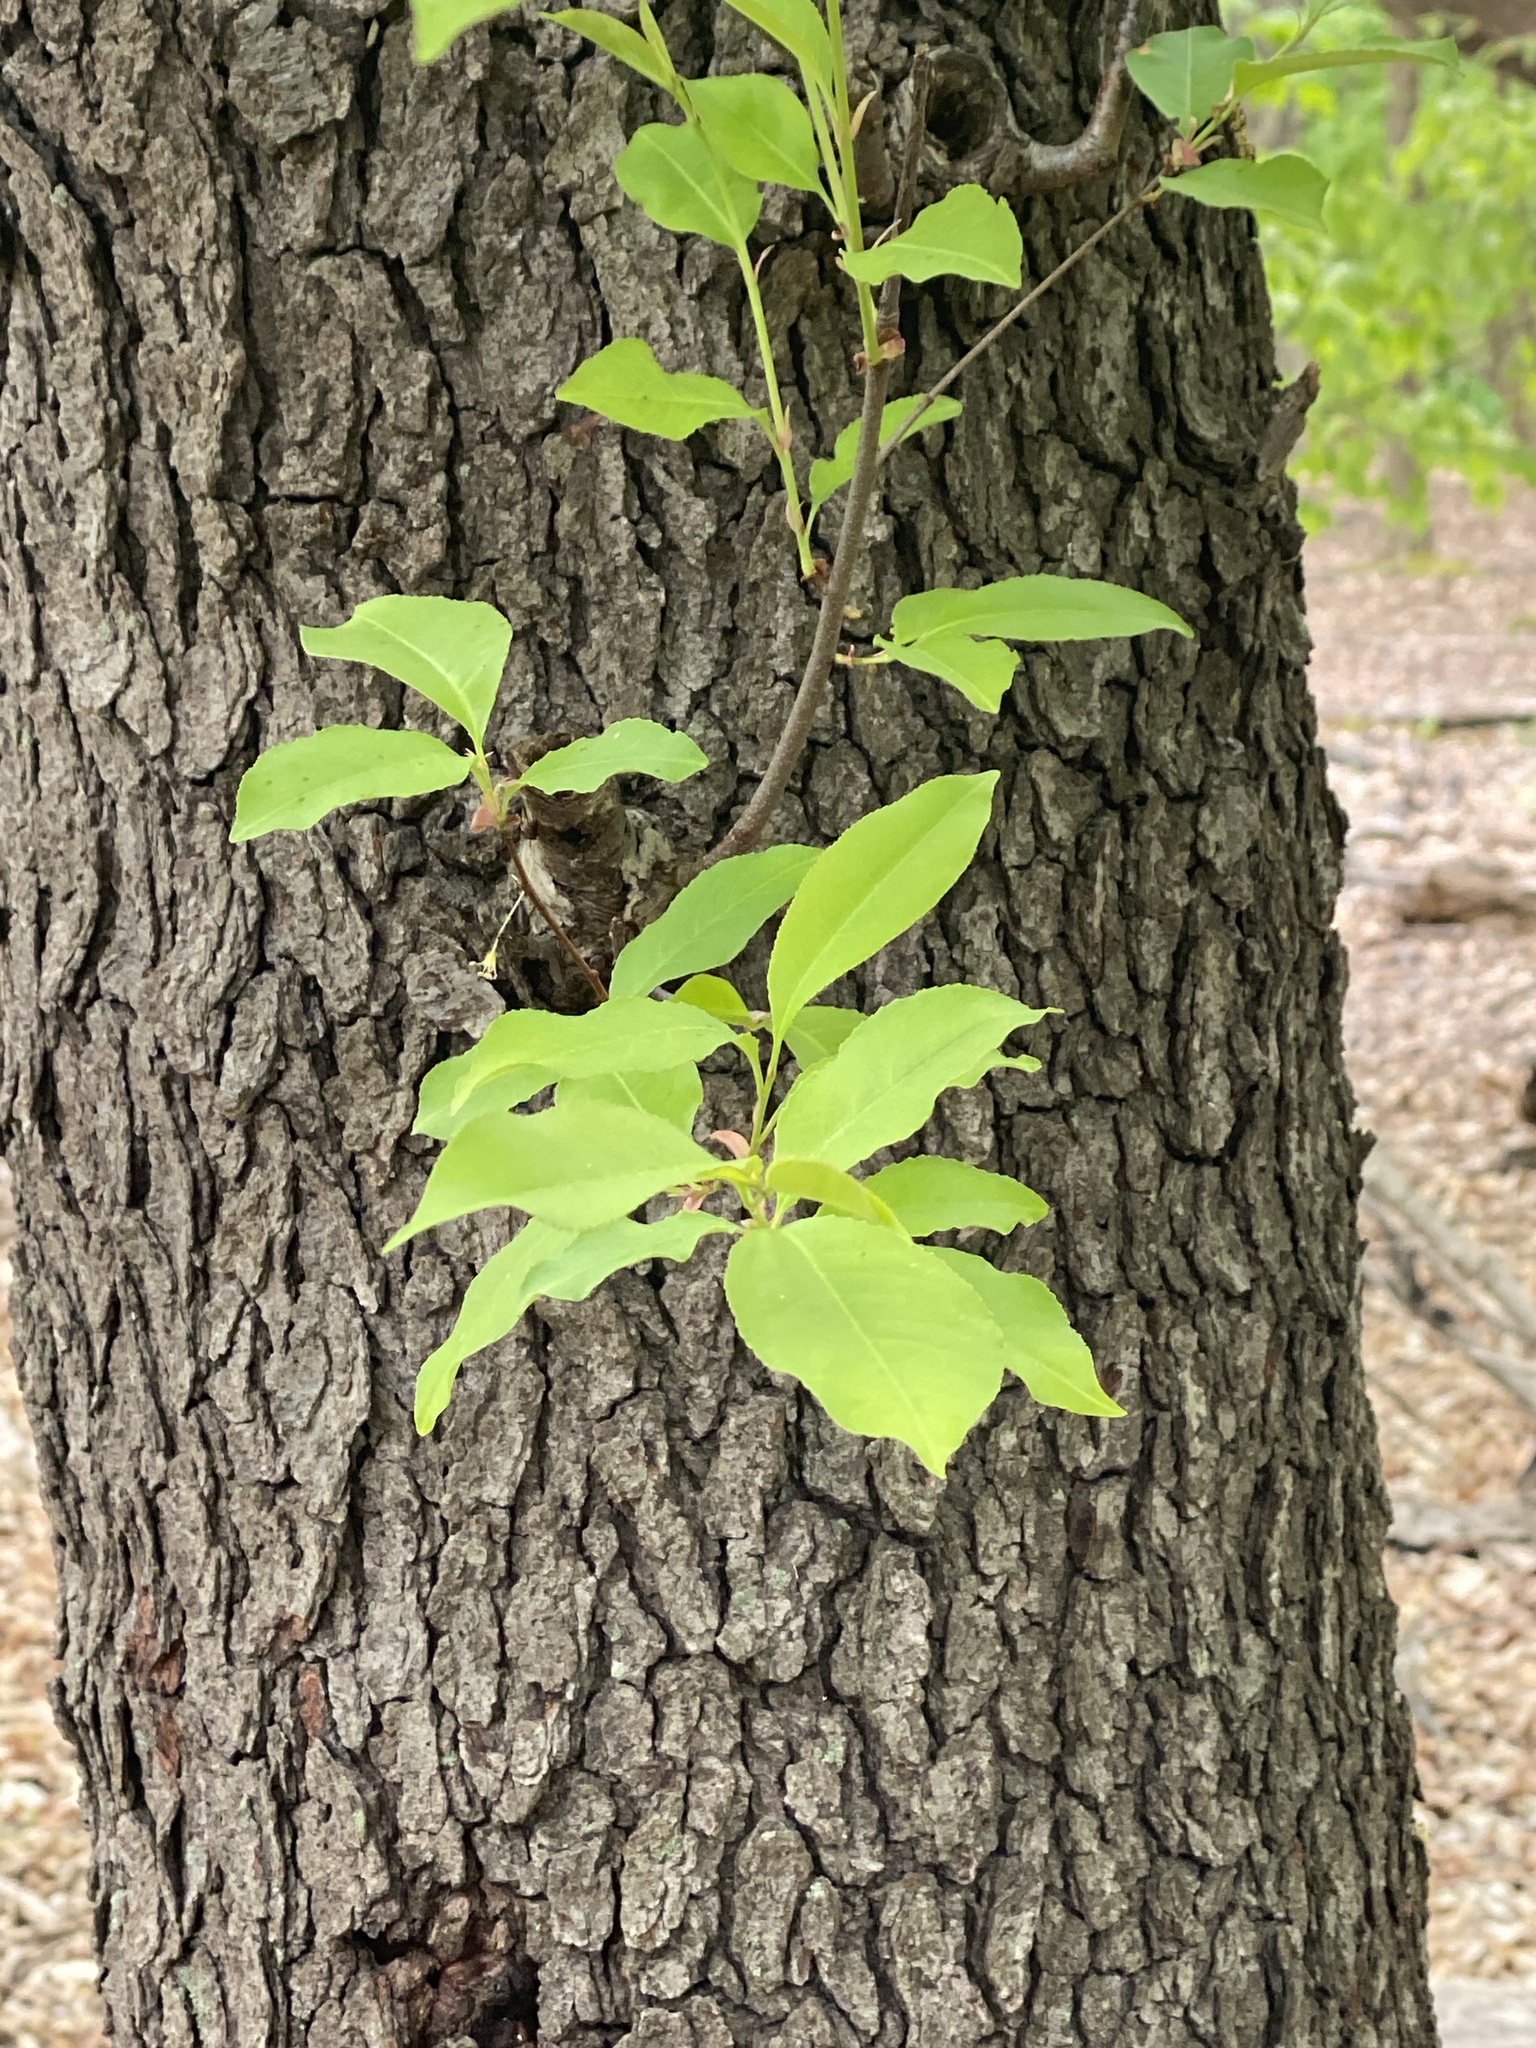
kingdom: Plantae
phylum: Tracheophyta
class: Magnoliopsida
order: Rosales
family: Rosaceae
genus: Prunus
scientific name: Prunus serotina
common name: Black cherry
